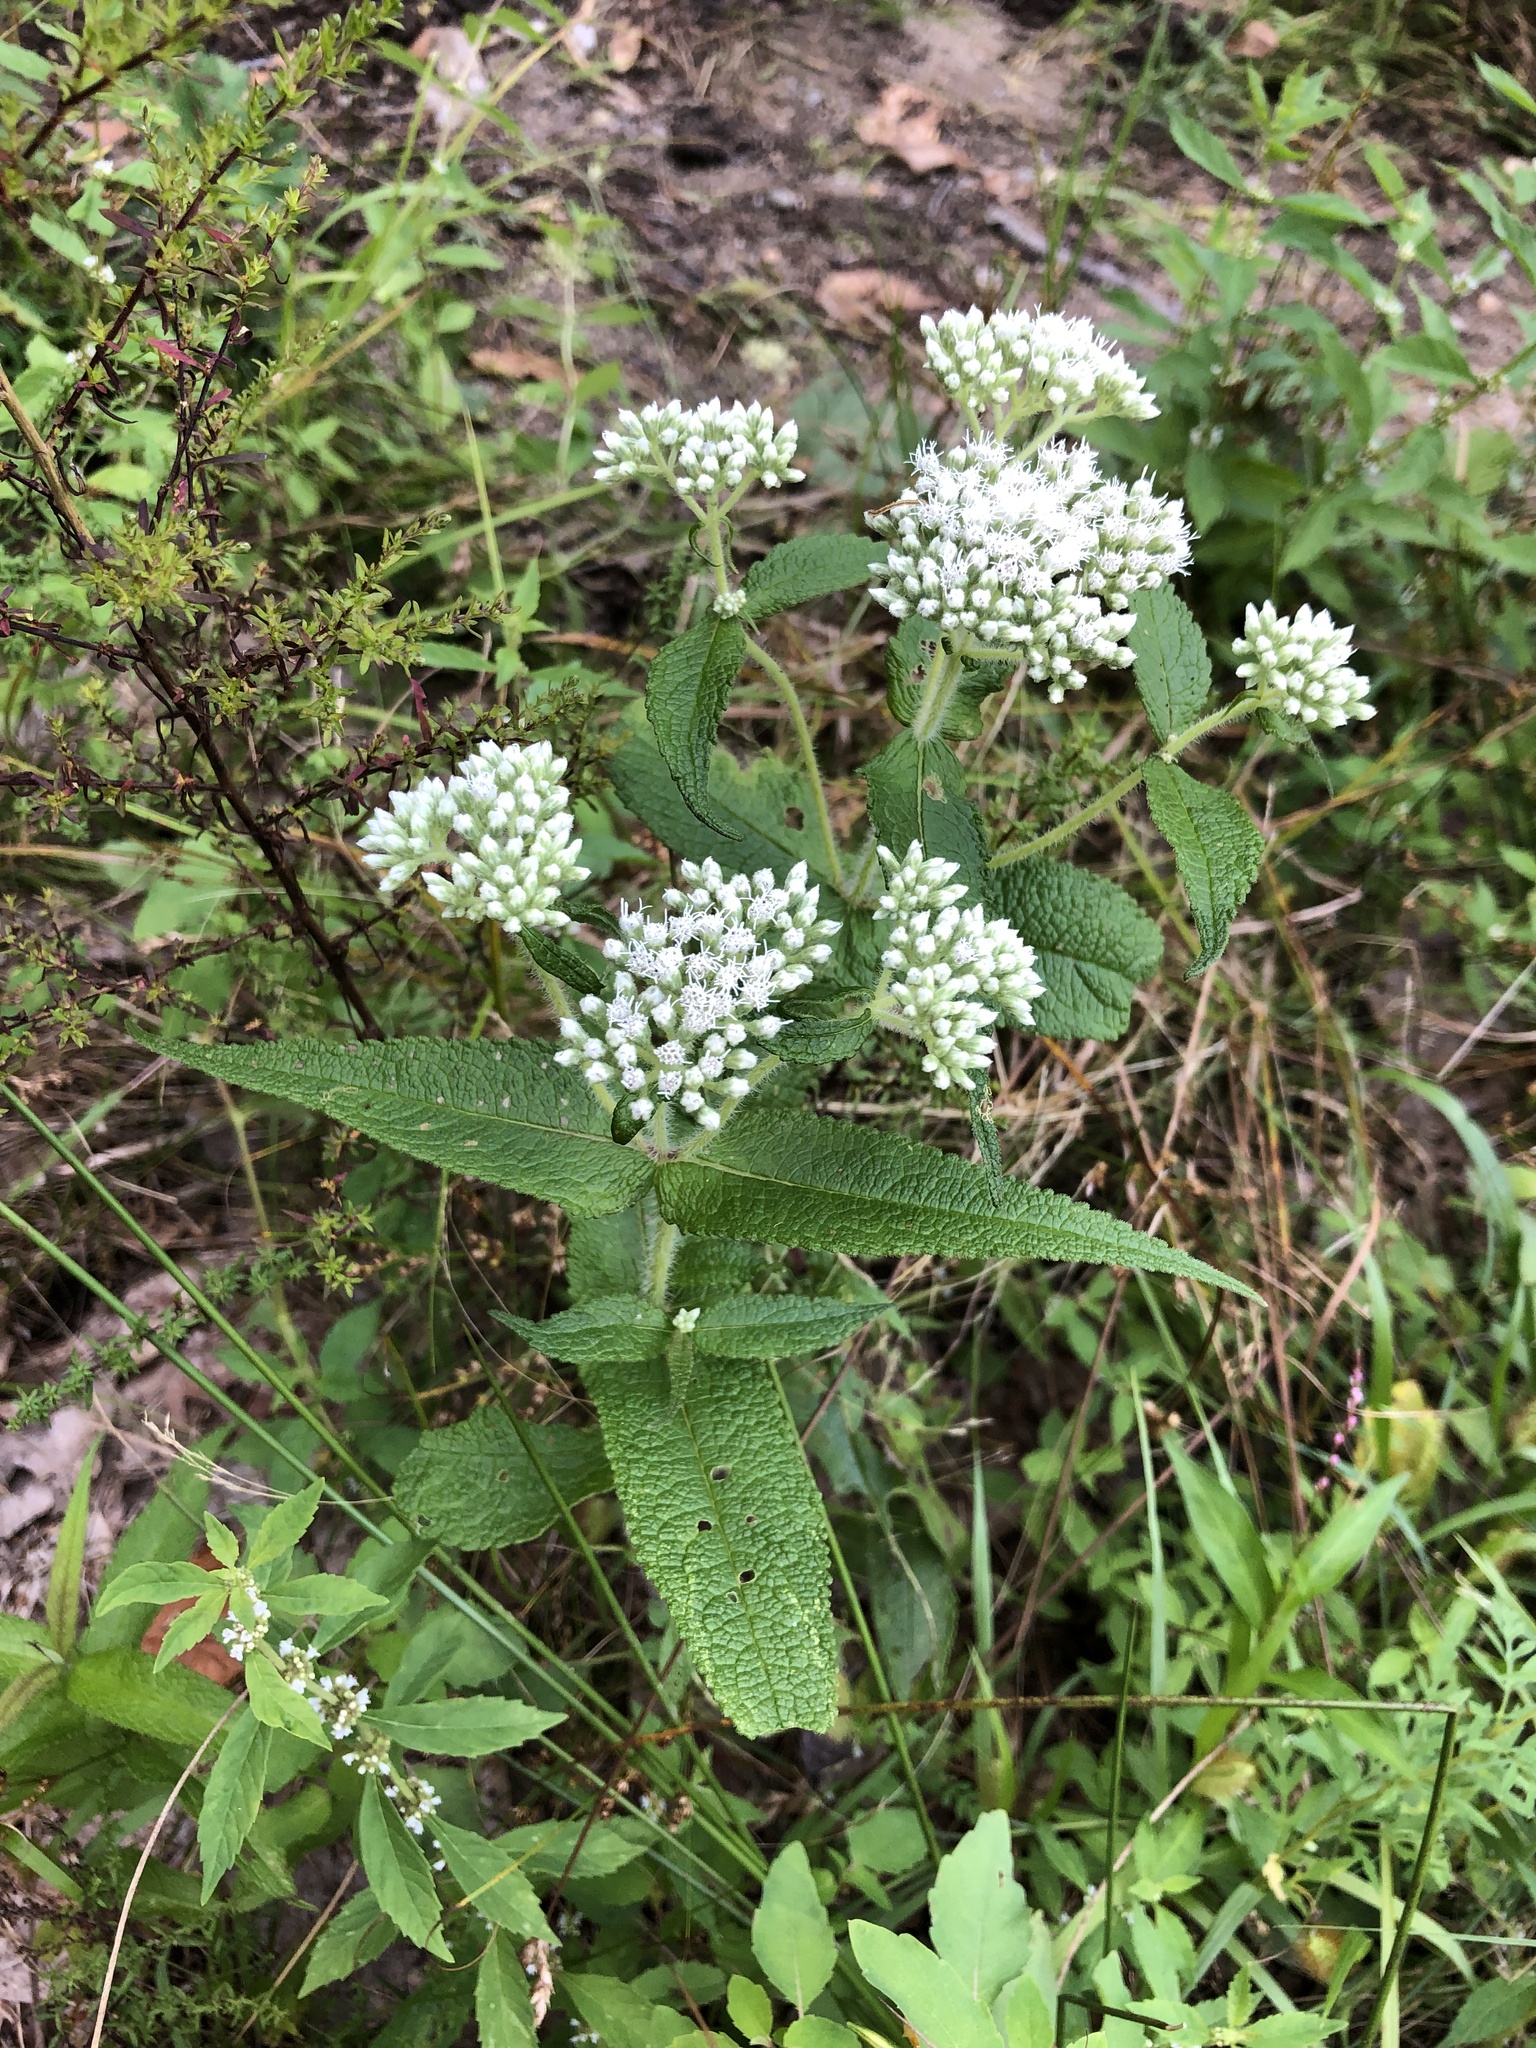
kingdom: Plantae
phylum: Tracheophyta
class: Magnoliopsida
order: Asterales
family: Asteraceae
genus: Eupatorium
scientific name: Eupatorium perfoliatum
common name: Boneset
